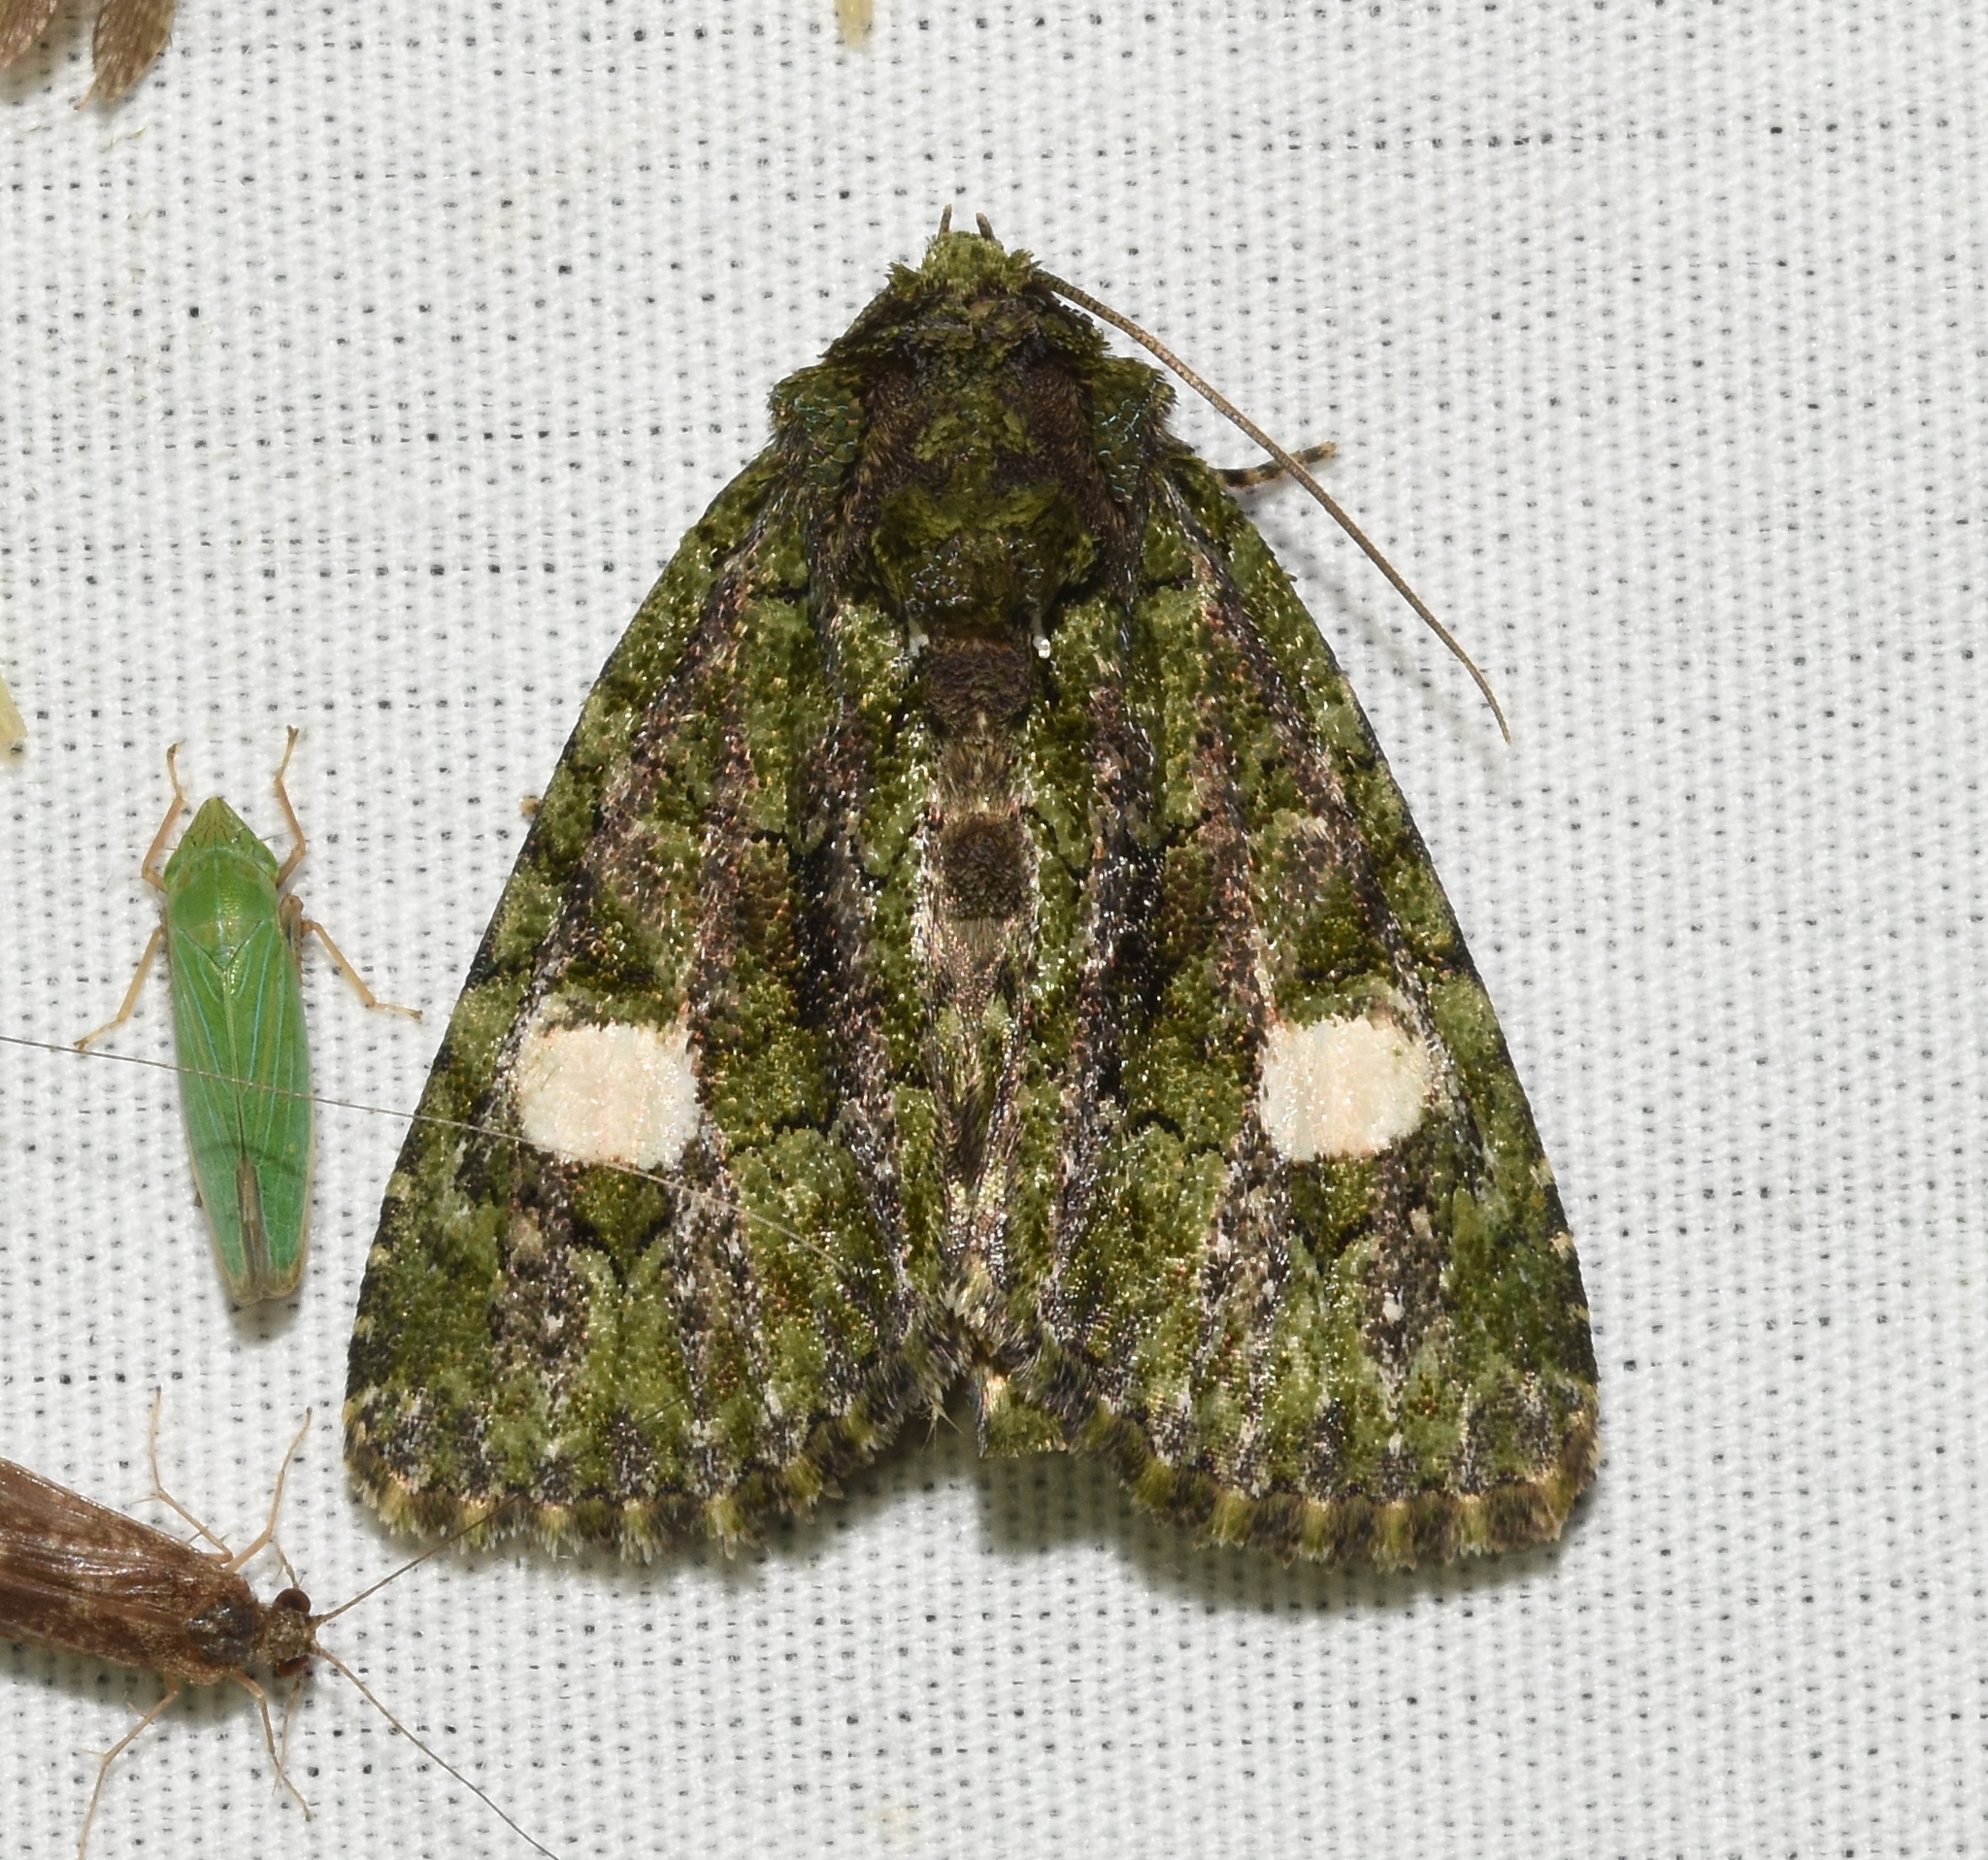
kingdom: Animalia
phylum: Arthropoda
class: Insecta
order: Lepidoptera
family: Noctuidae
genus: Phosphila
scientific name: Phosphila miselioides
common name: Spotted phosphila moth
